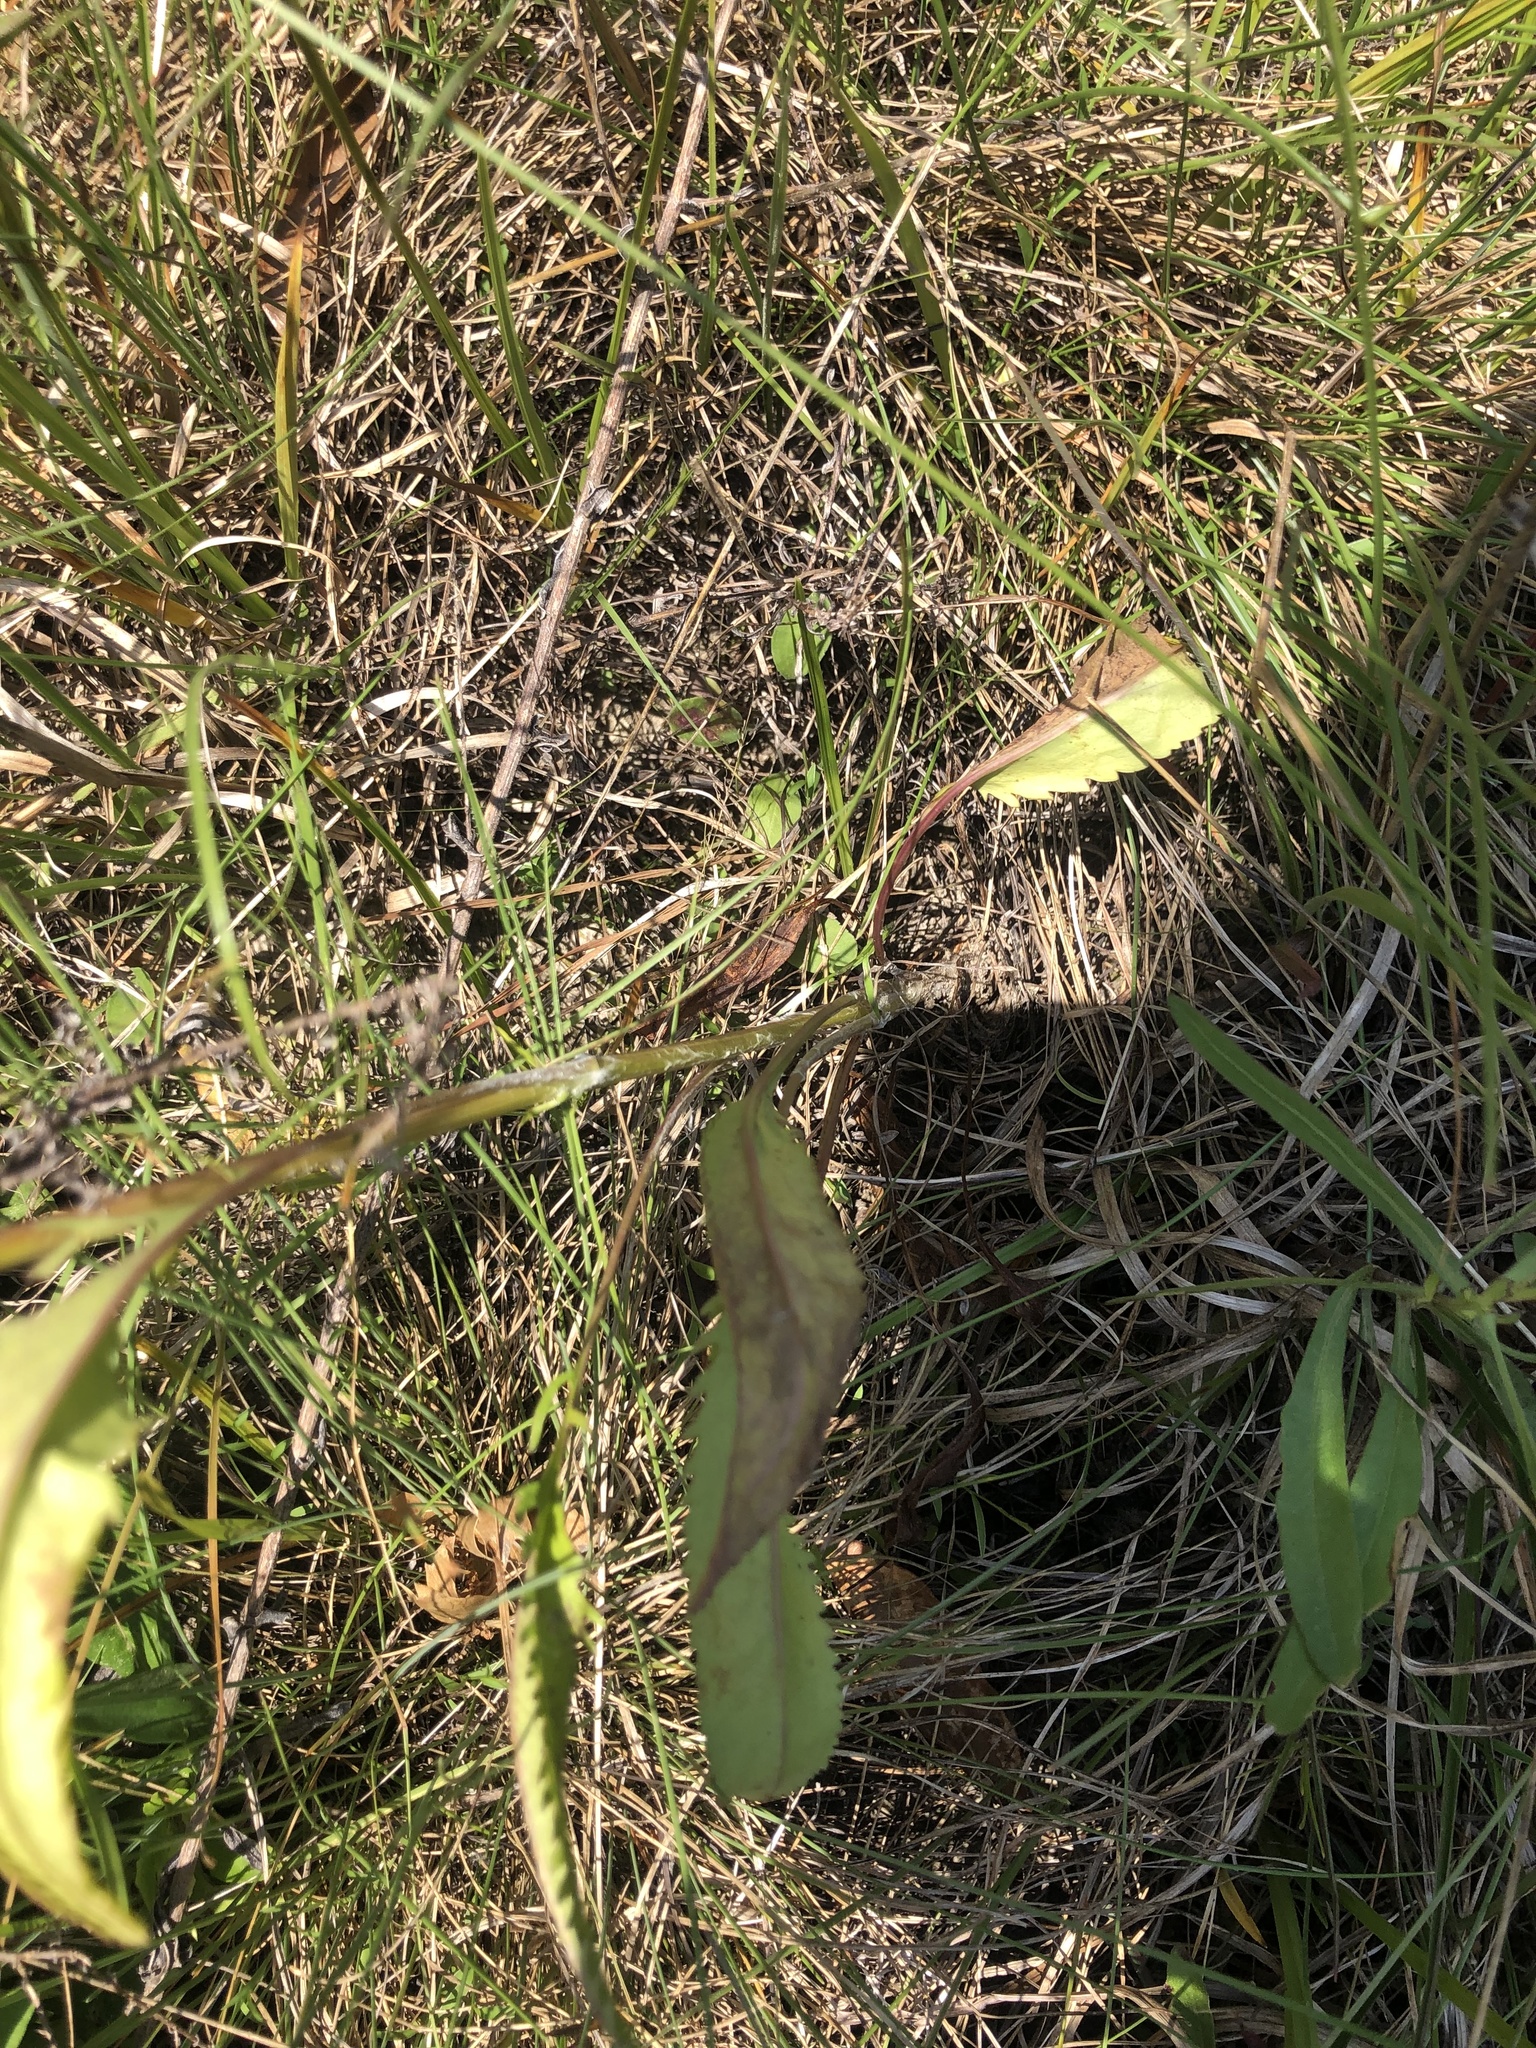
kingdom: Plantae
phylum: Tracheophyta
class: Magnoliopsida
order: Asterales
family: Asteraceae
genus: Packera
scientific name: Packera anonyma
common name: Small ragwort
